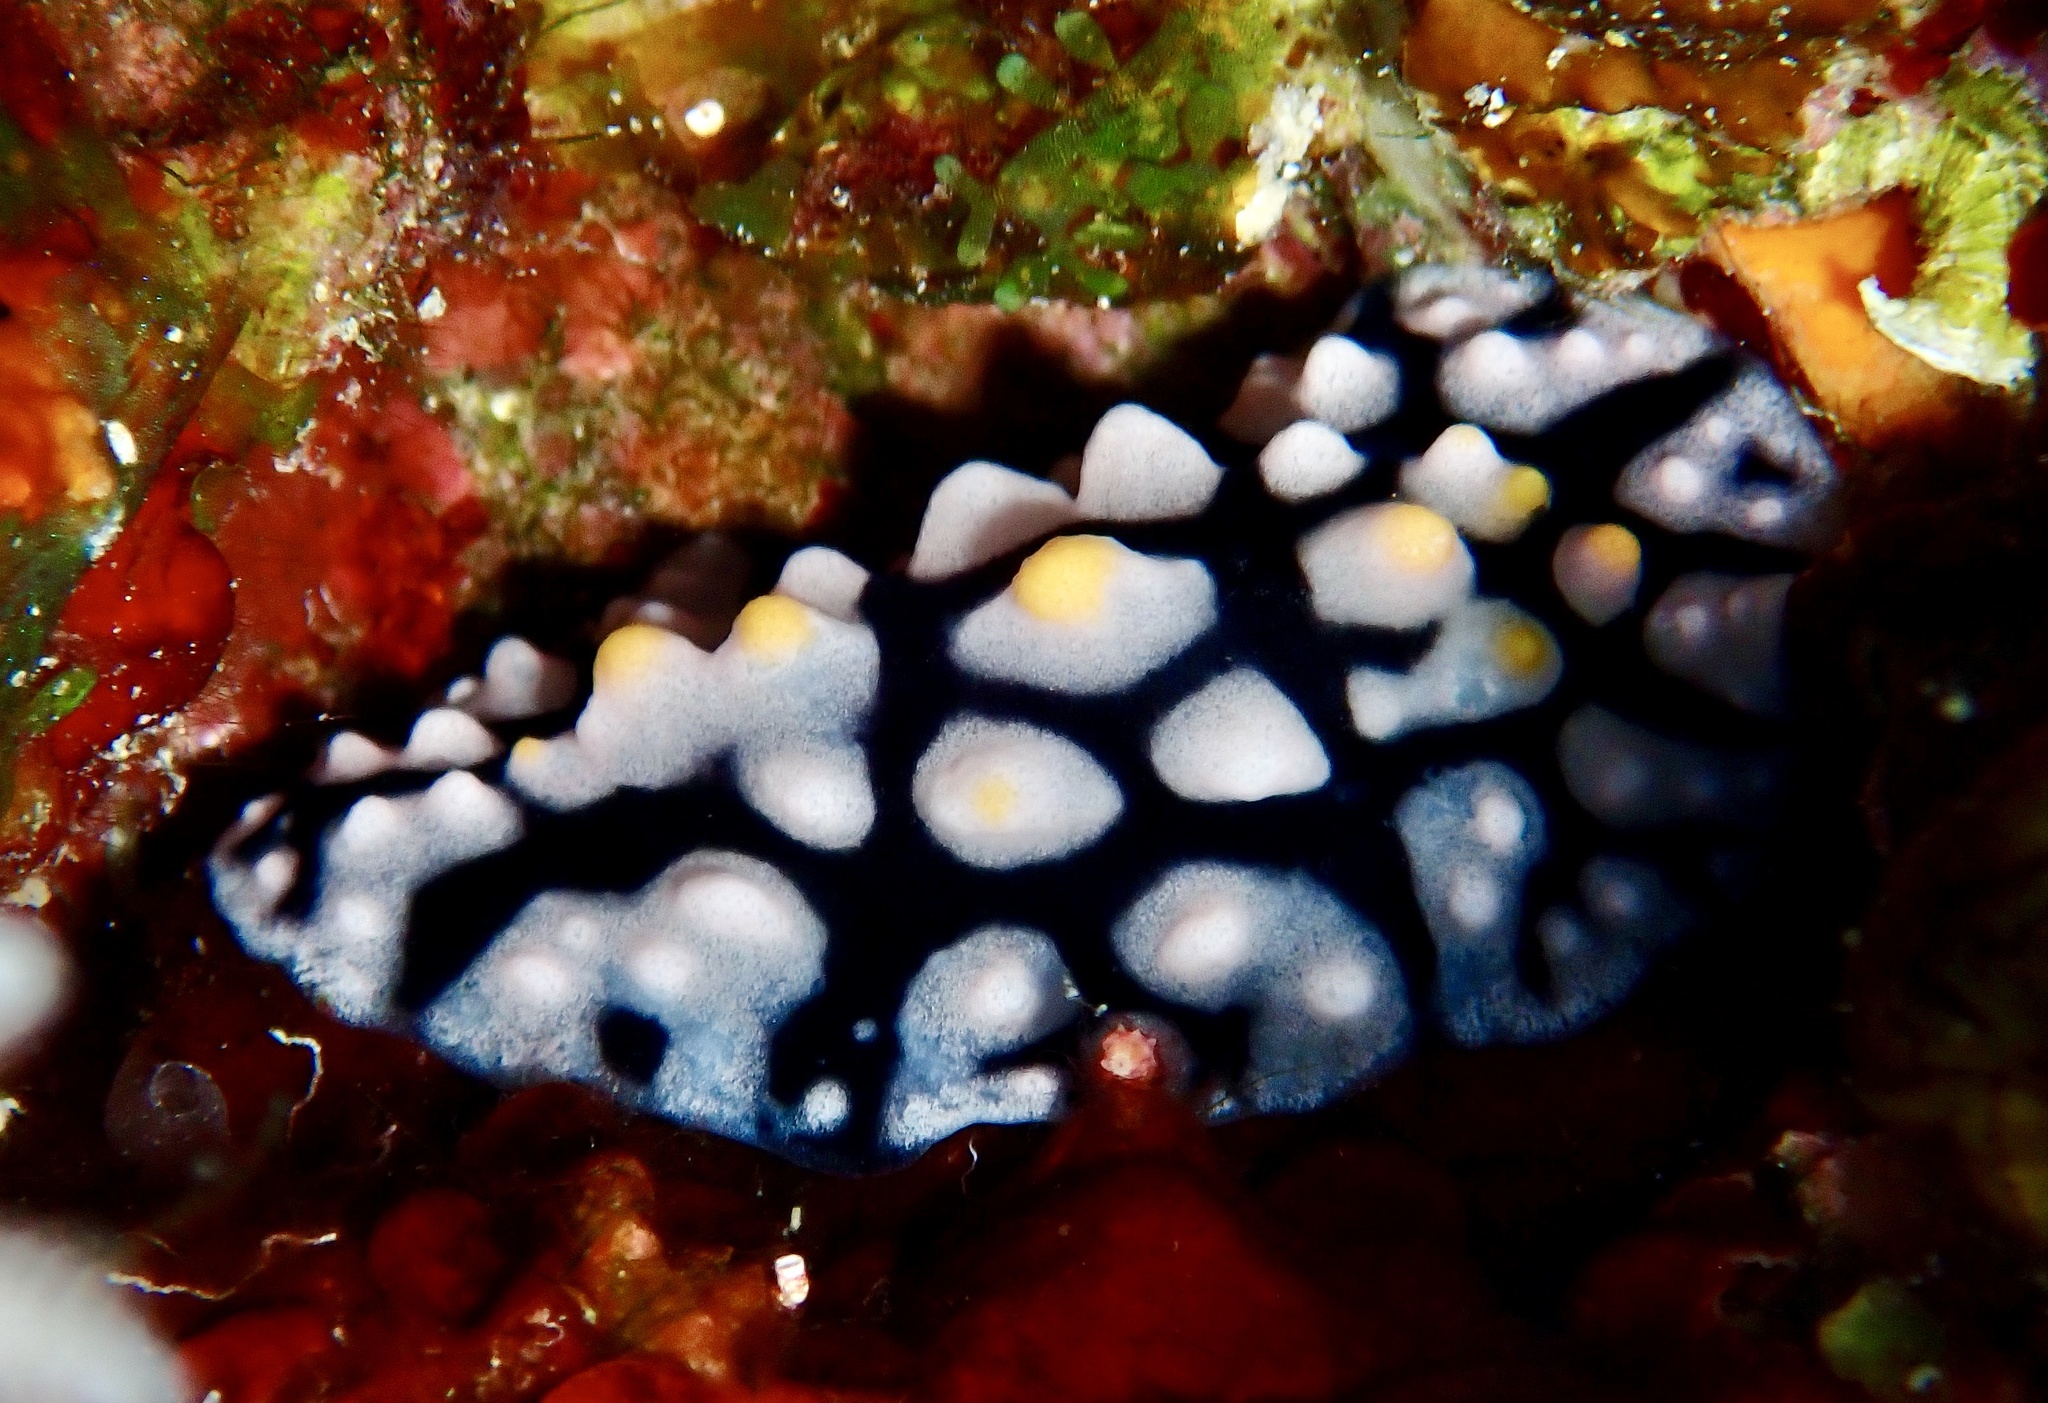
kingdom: Animalia
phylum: Mollusca
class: Gastropoda
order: Nudibranchia
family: Phyllidiidae
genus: Phyllidia
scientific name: Phyllidia multifaria
